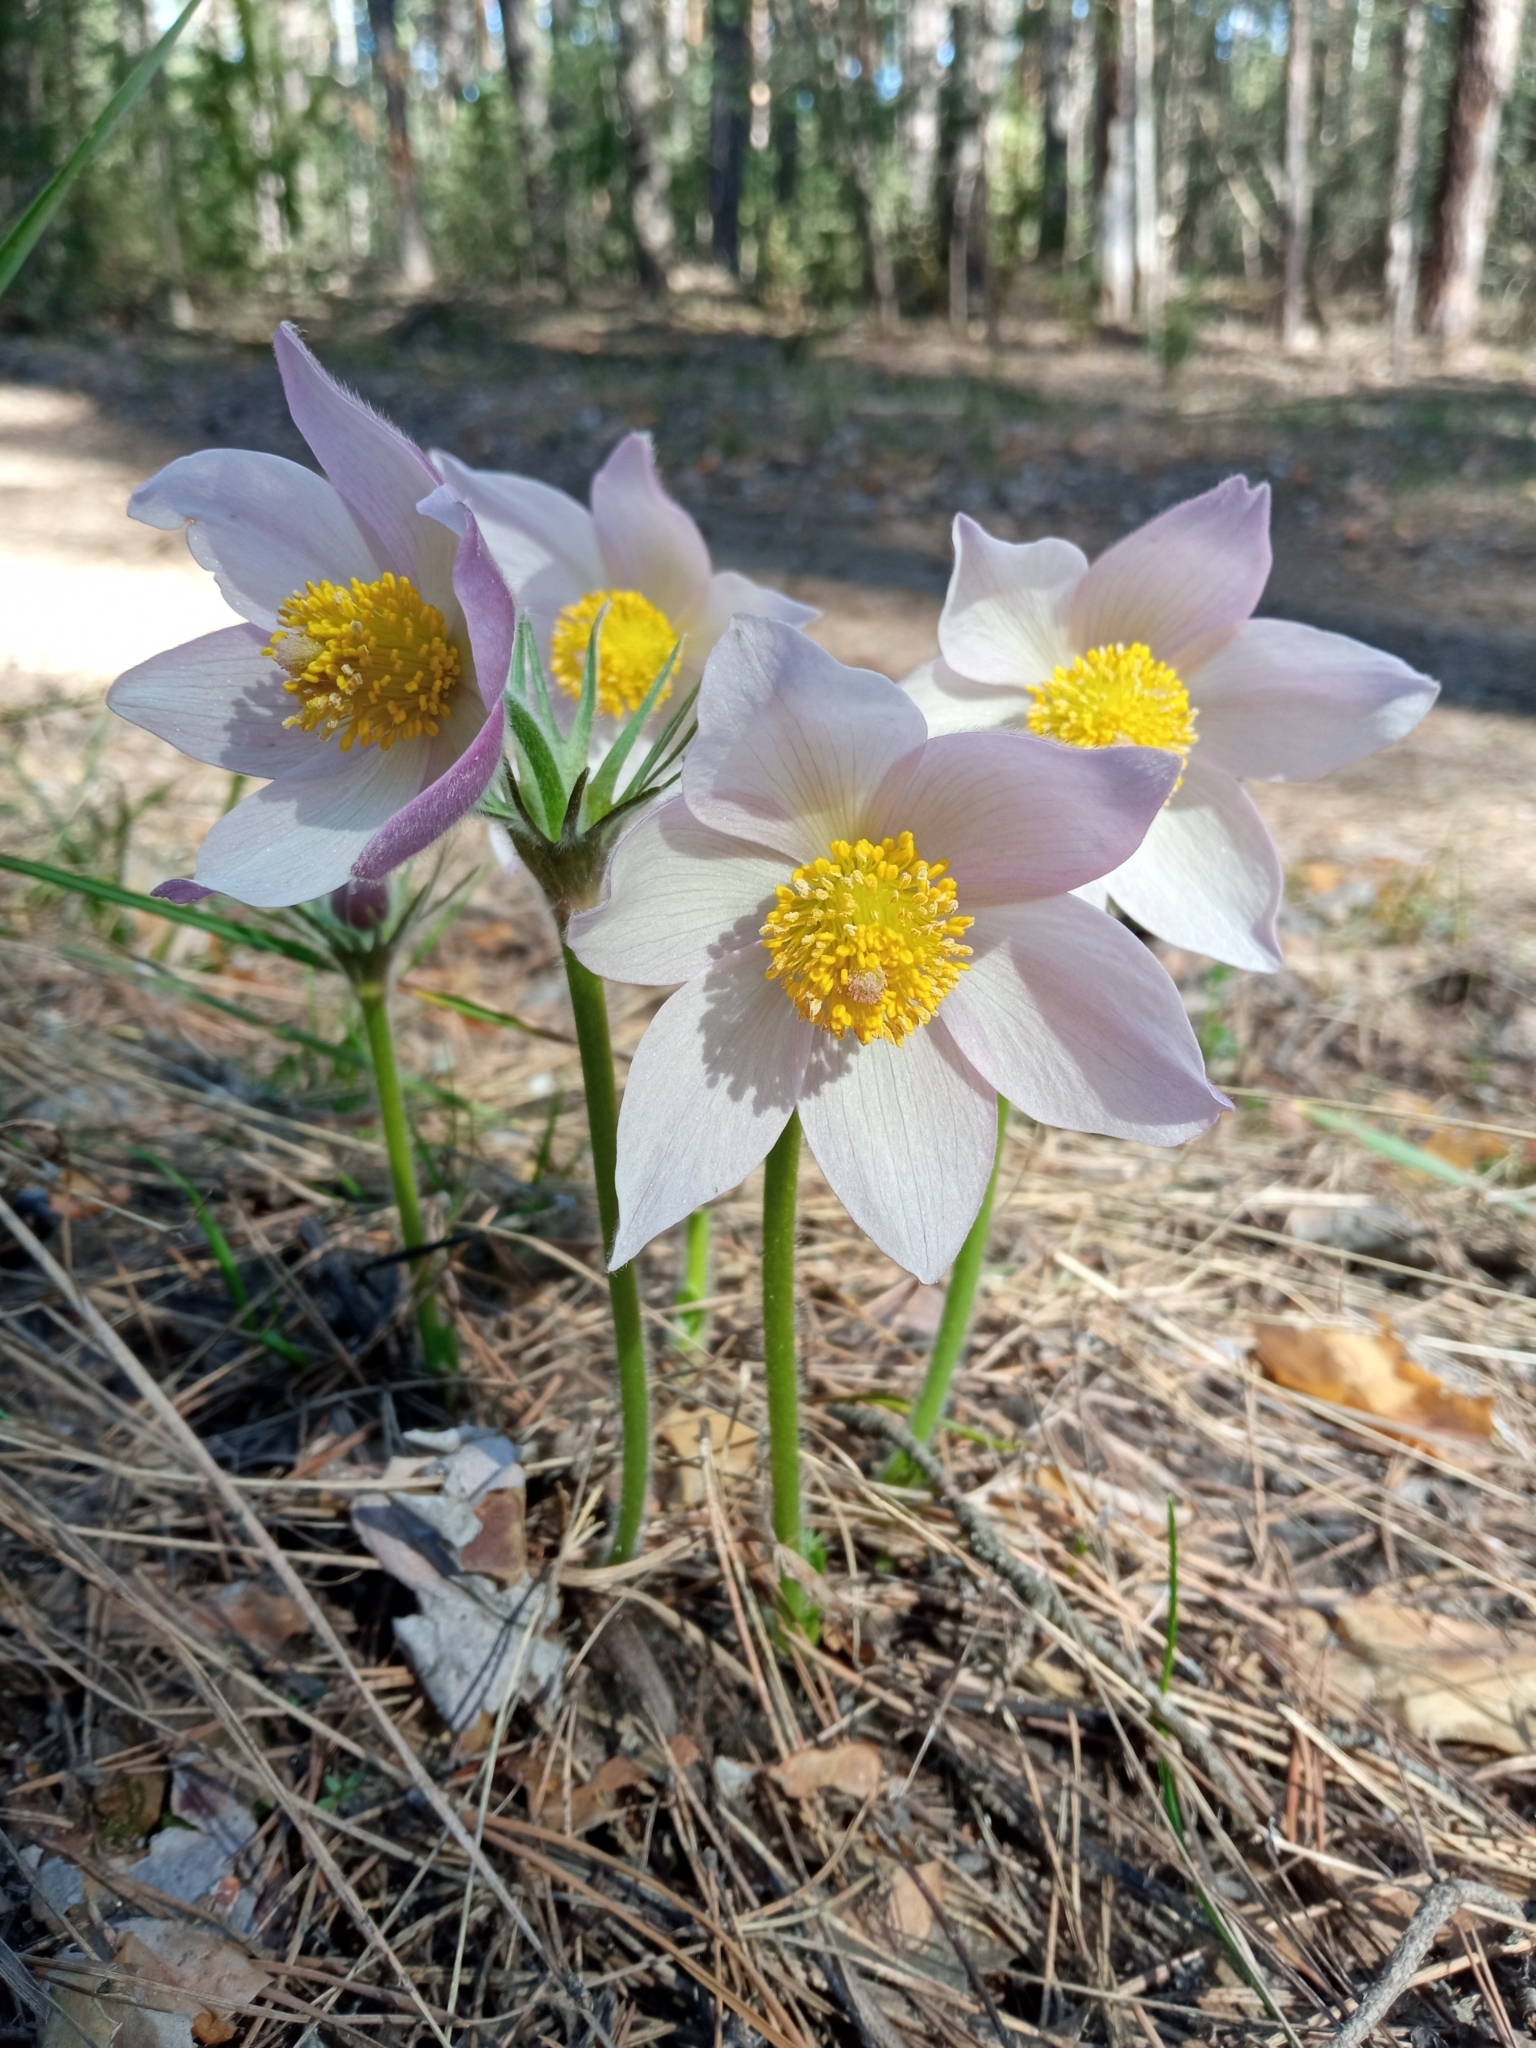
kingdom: Plantae
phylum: Tracheophyta
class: Magnoliopsida
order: Ranunculales
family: Ranunculaceae
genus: Pulsatilla
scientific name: Pulsatilla patens
